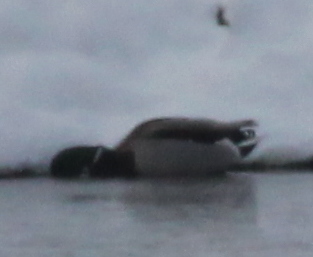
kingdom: Animalia
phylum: Chordata
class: Aves
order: Anseriformes
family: Anatidae
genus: Anas
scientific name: Anas platyrhynchos
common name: Mallard
